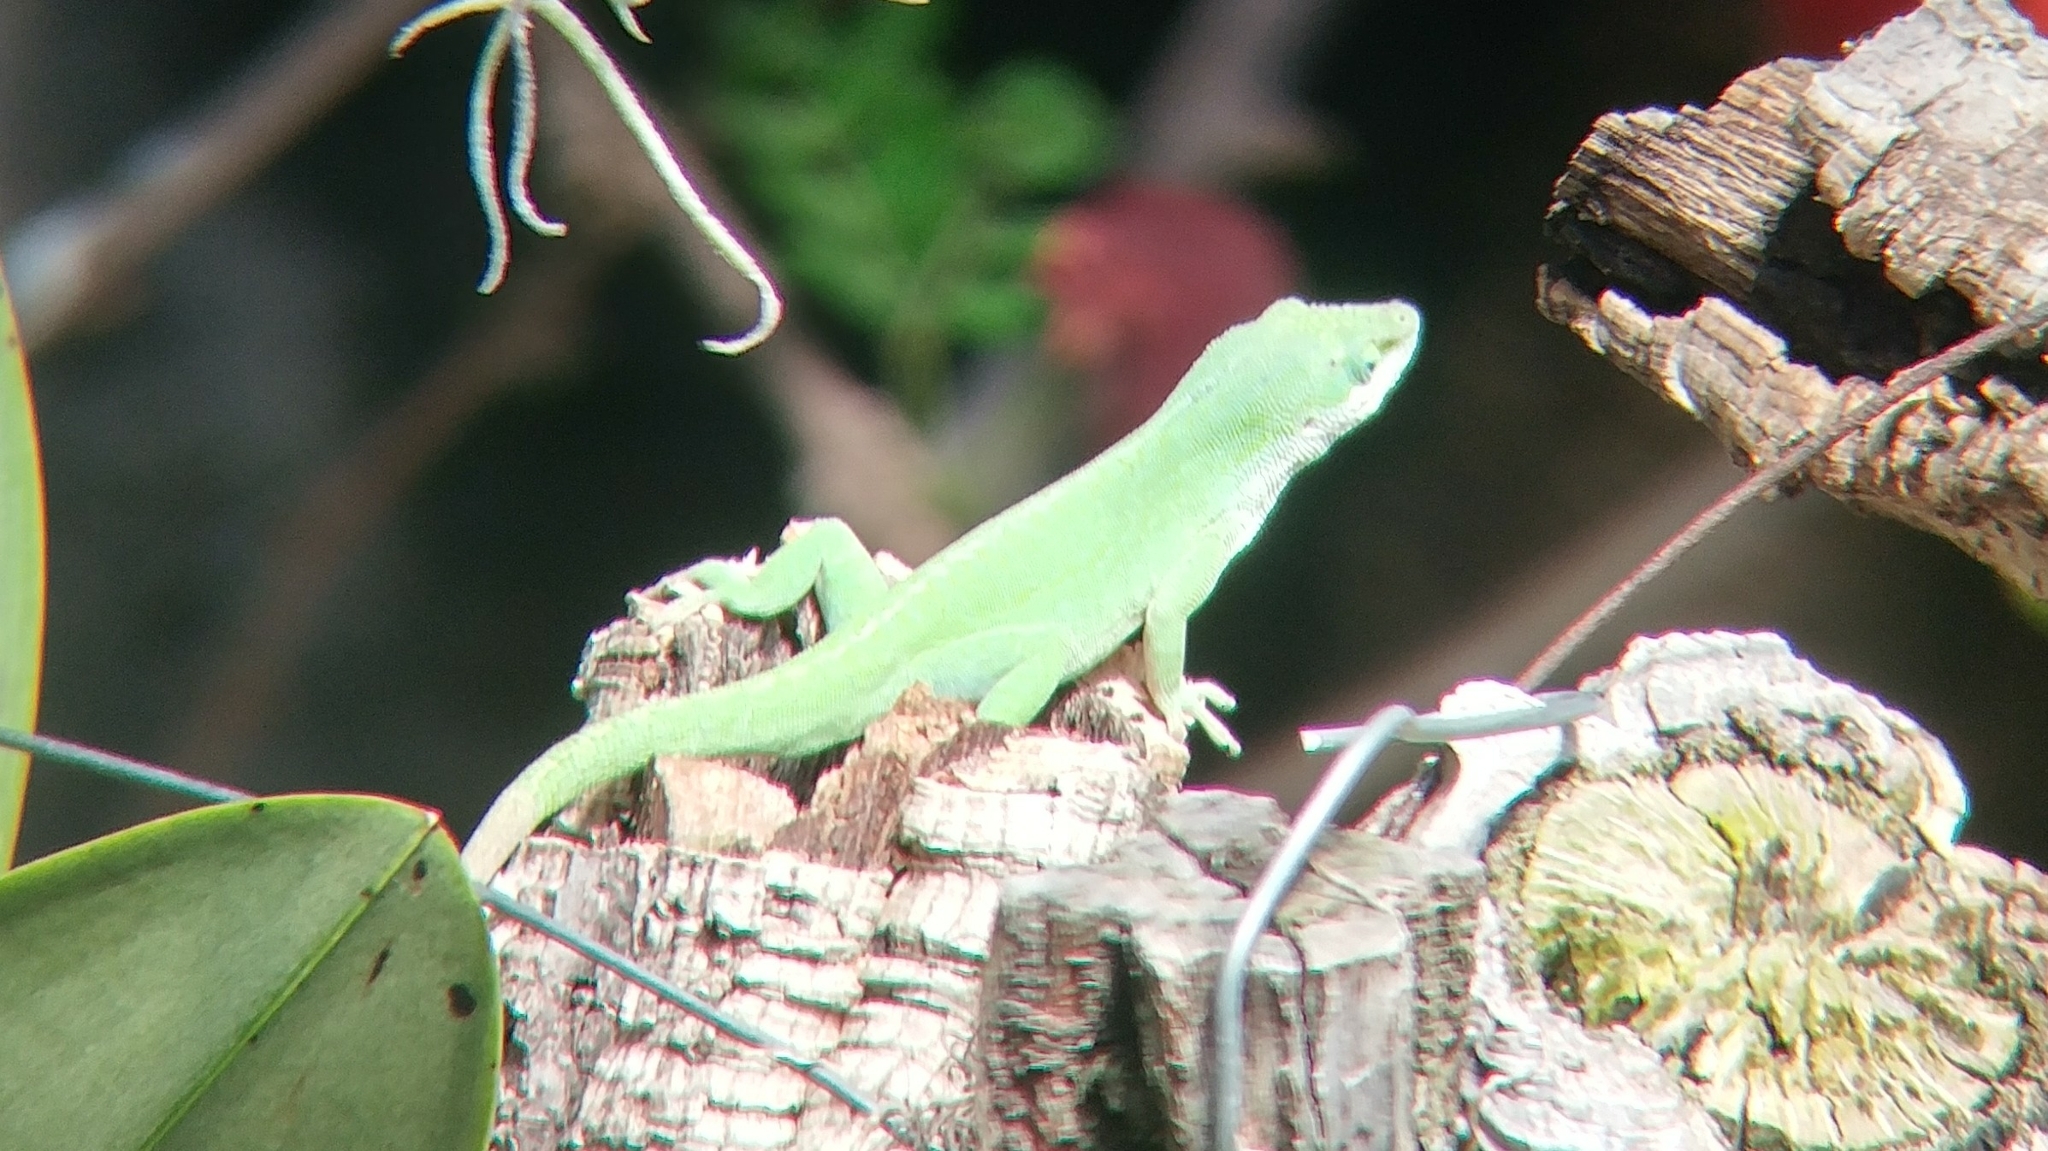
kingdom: Animalia
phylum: Chordata
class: Squamata
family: Dactyloidae
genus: Anolis
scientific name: Anolis carolinensis
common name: Green anole
